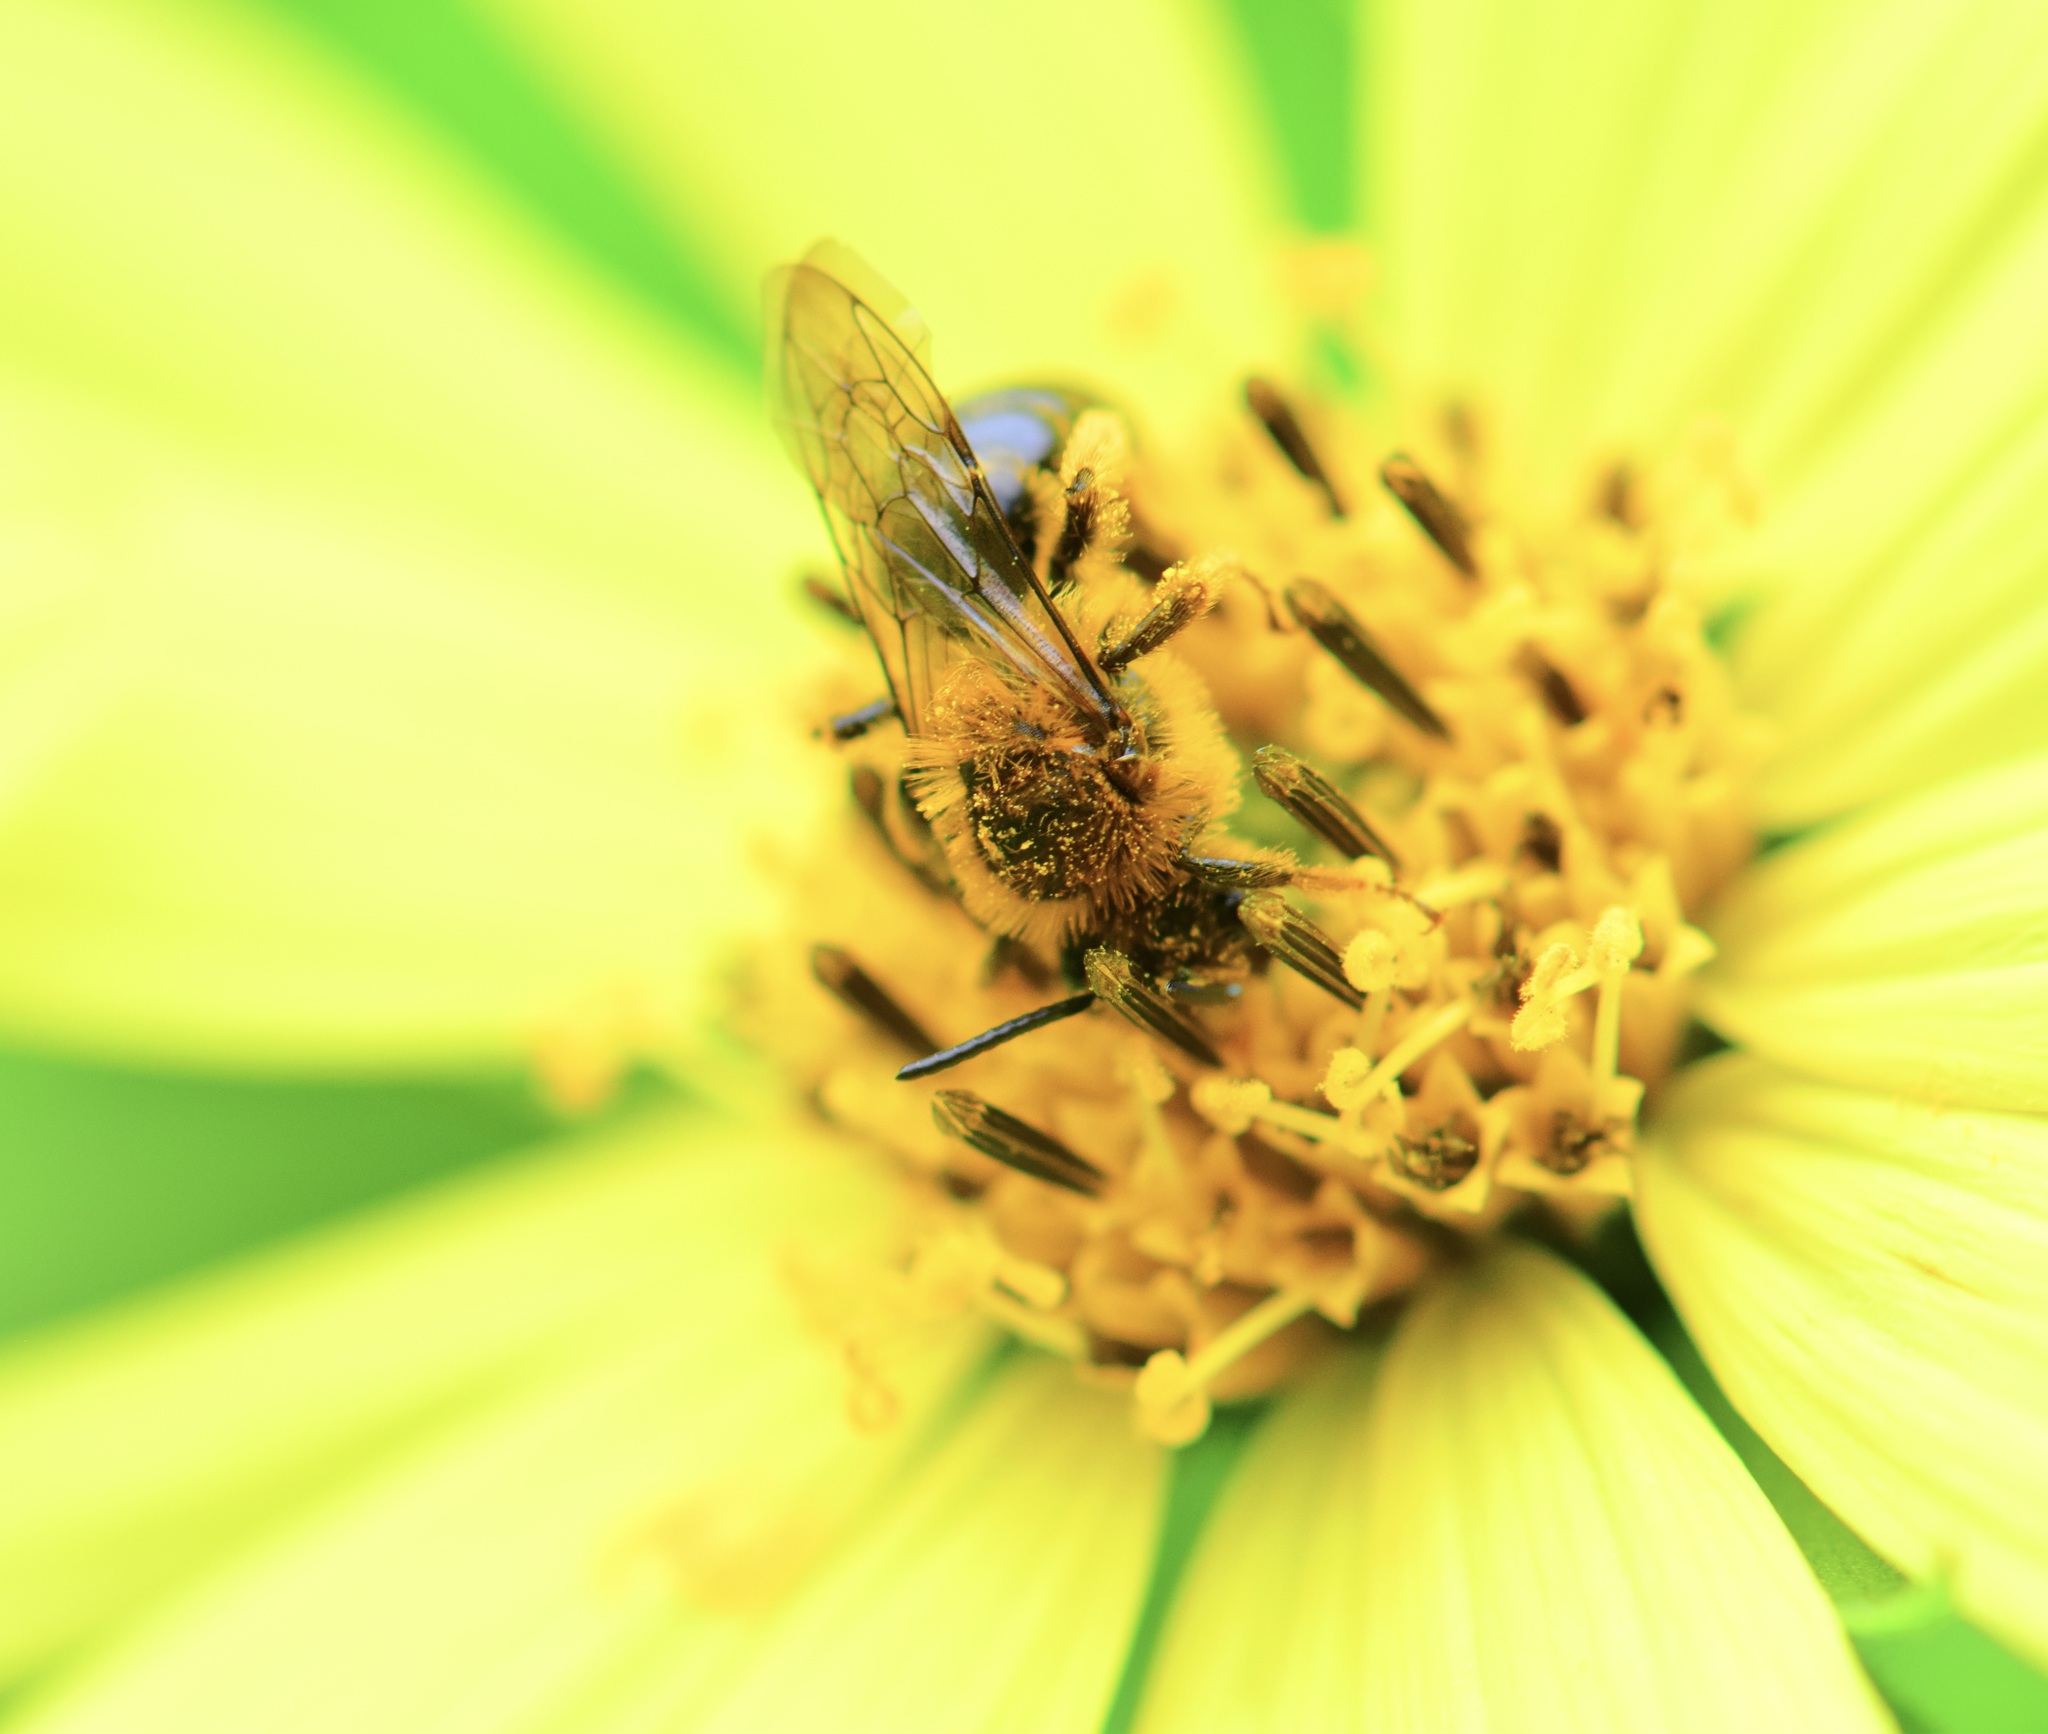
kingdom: Animalia
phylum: Arthropoda
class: Insecta
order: Hymenoptera
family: Andrenidae
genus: Andrena
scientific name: Andrena helianthi
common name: Sunflower mining bee
